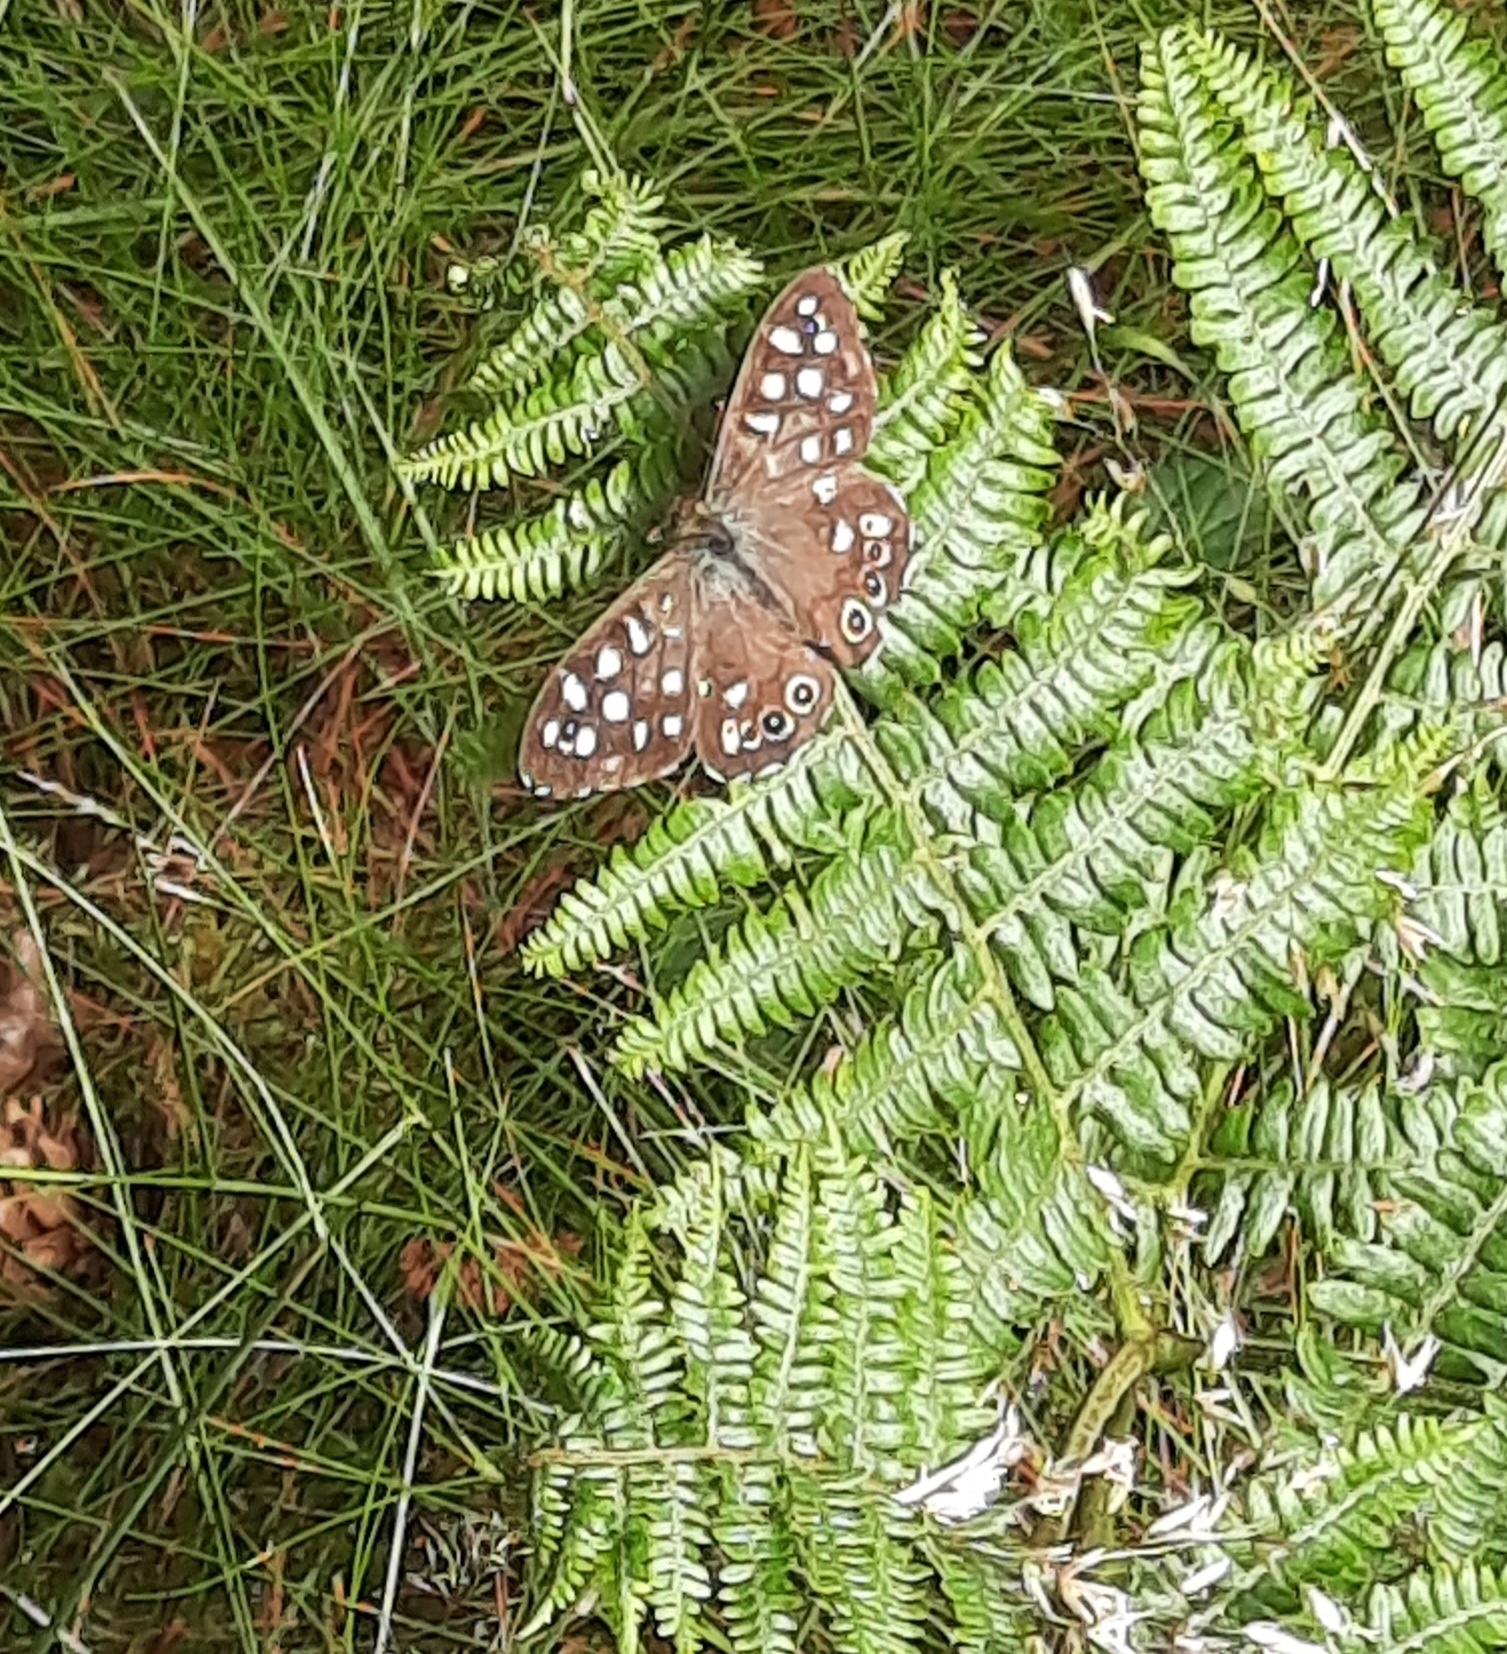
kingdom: Animalia
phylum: Arthropoda
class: Insecta
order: Lepidoptera
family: Nymphalidae
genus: Pararge
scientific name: Pararge aegeria
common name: Speckled wood
